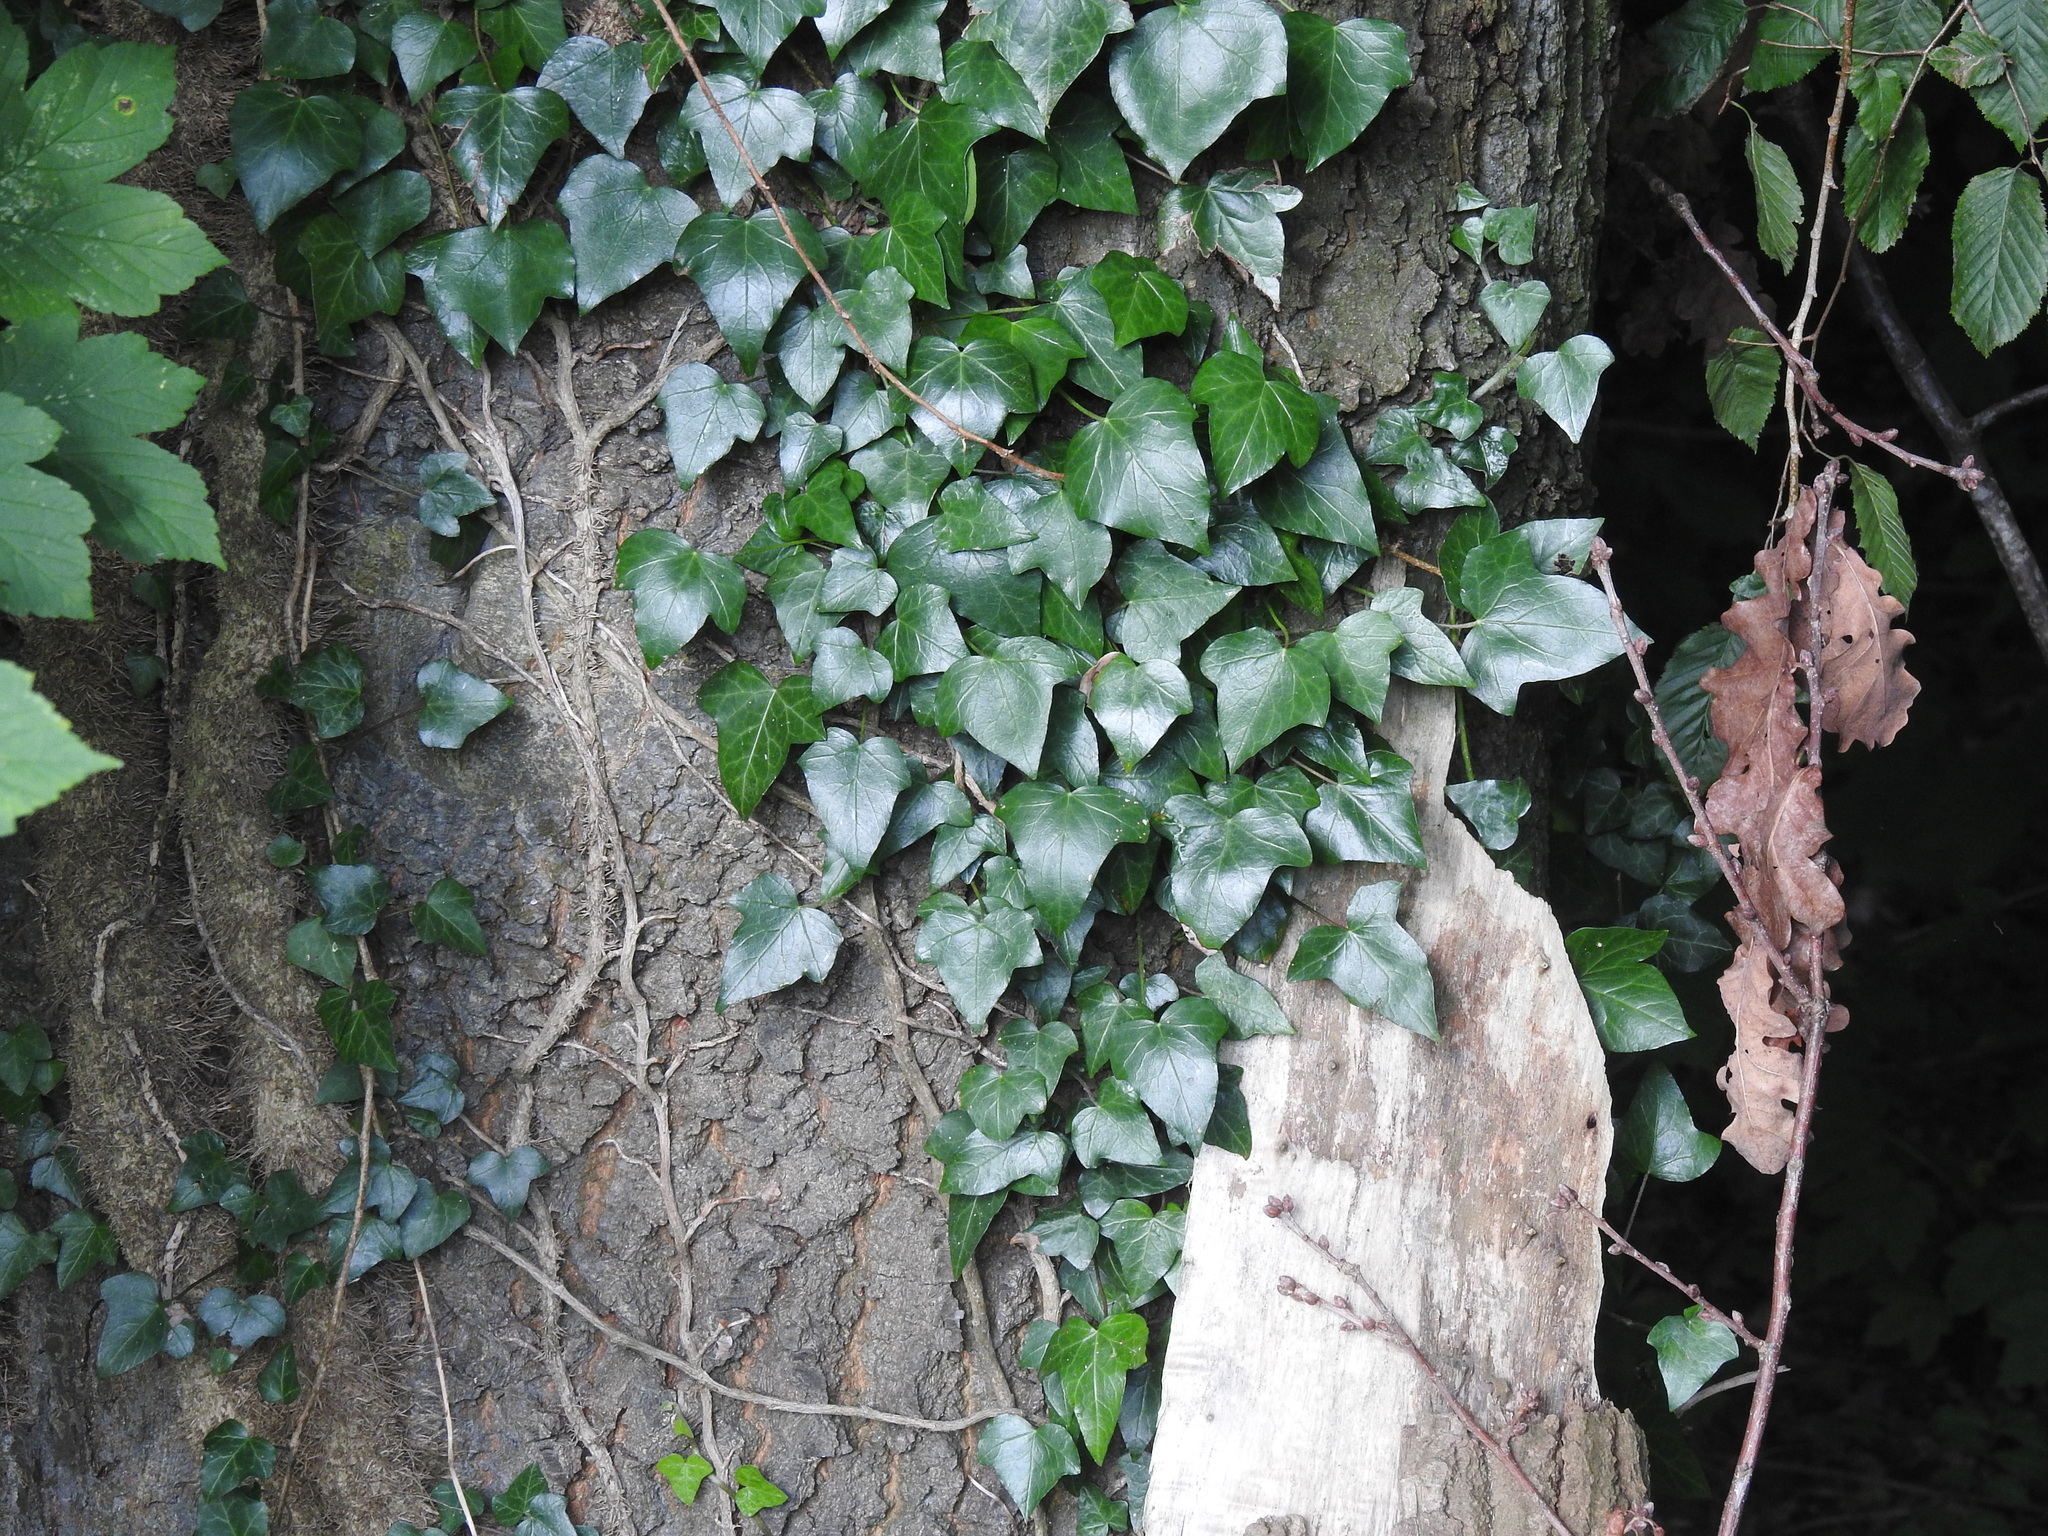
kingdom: Plantae
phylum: Tracheophyta
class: Magnoliopsida
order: Apiales
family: Araliaceae
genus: Hedera
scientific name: Hedera helix
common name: Ivy
